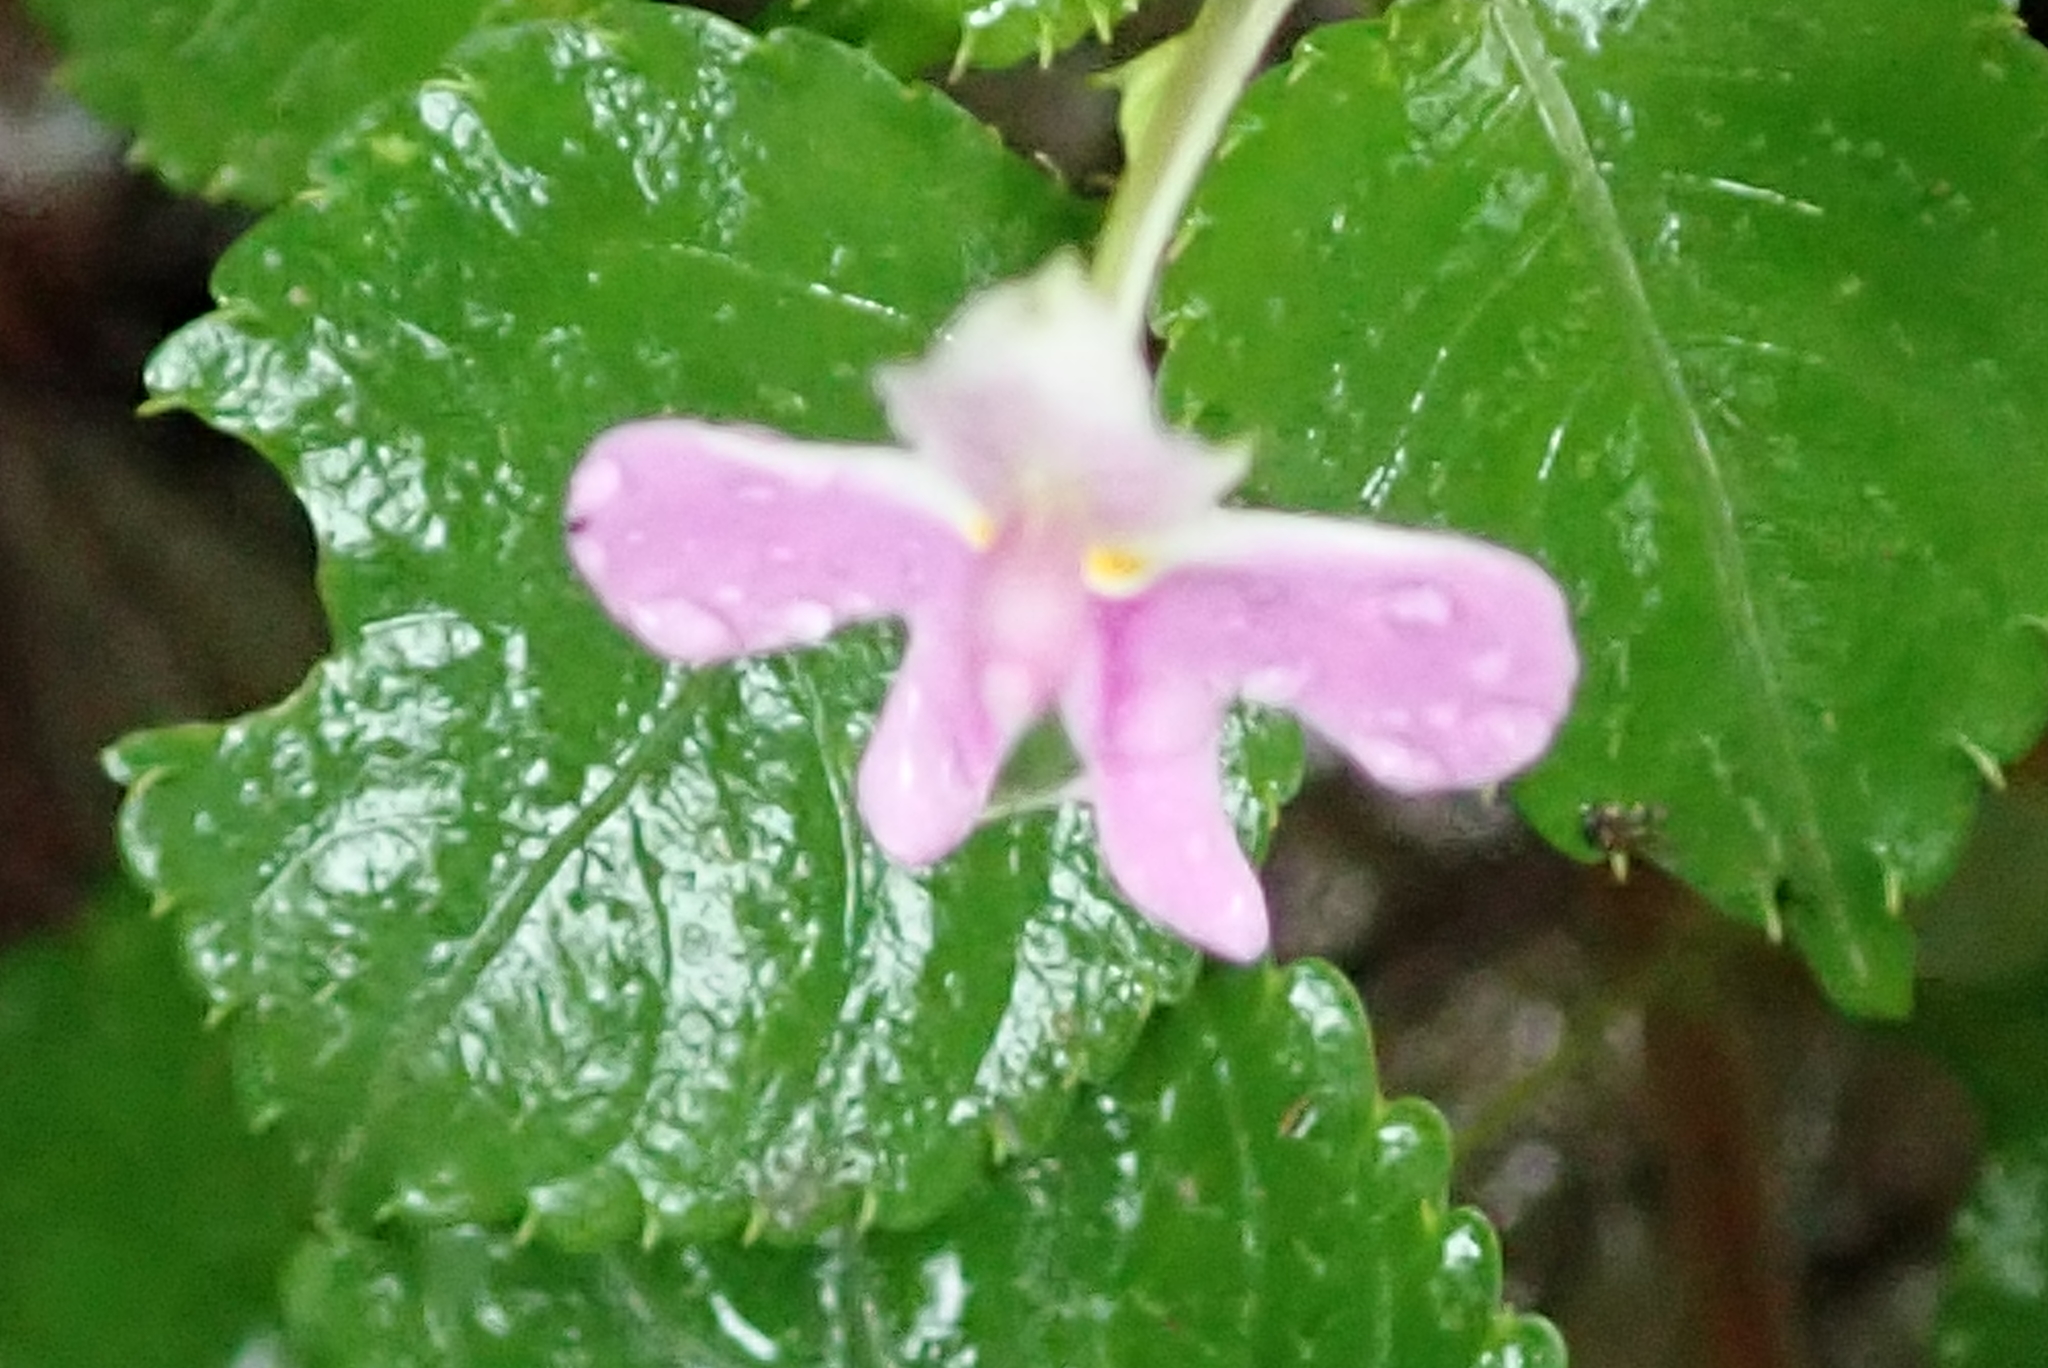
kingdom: Plantae
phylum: Tracheophyta
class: Magnoliopsida
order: Ericales
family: Balsaminaceae
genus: Impatiens
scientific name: Impatiens hochstetteri
